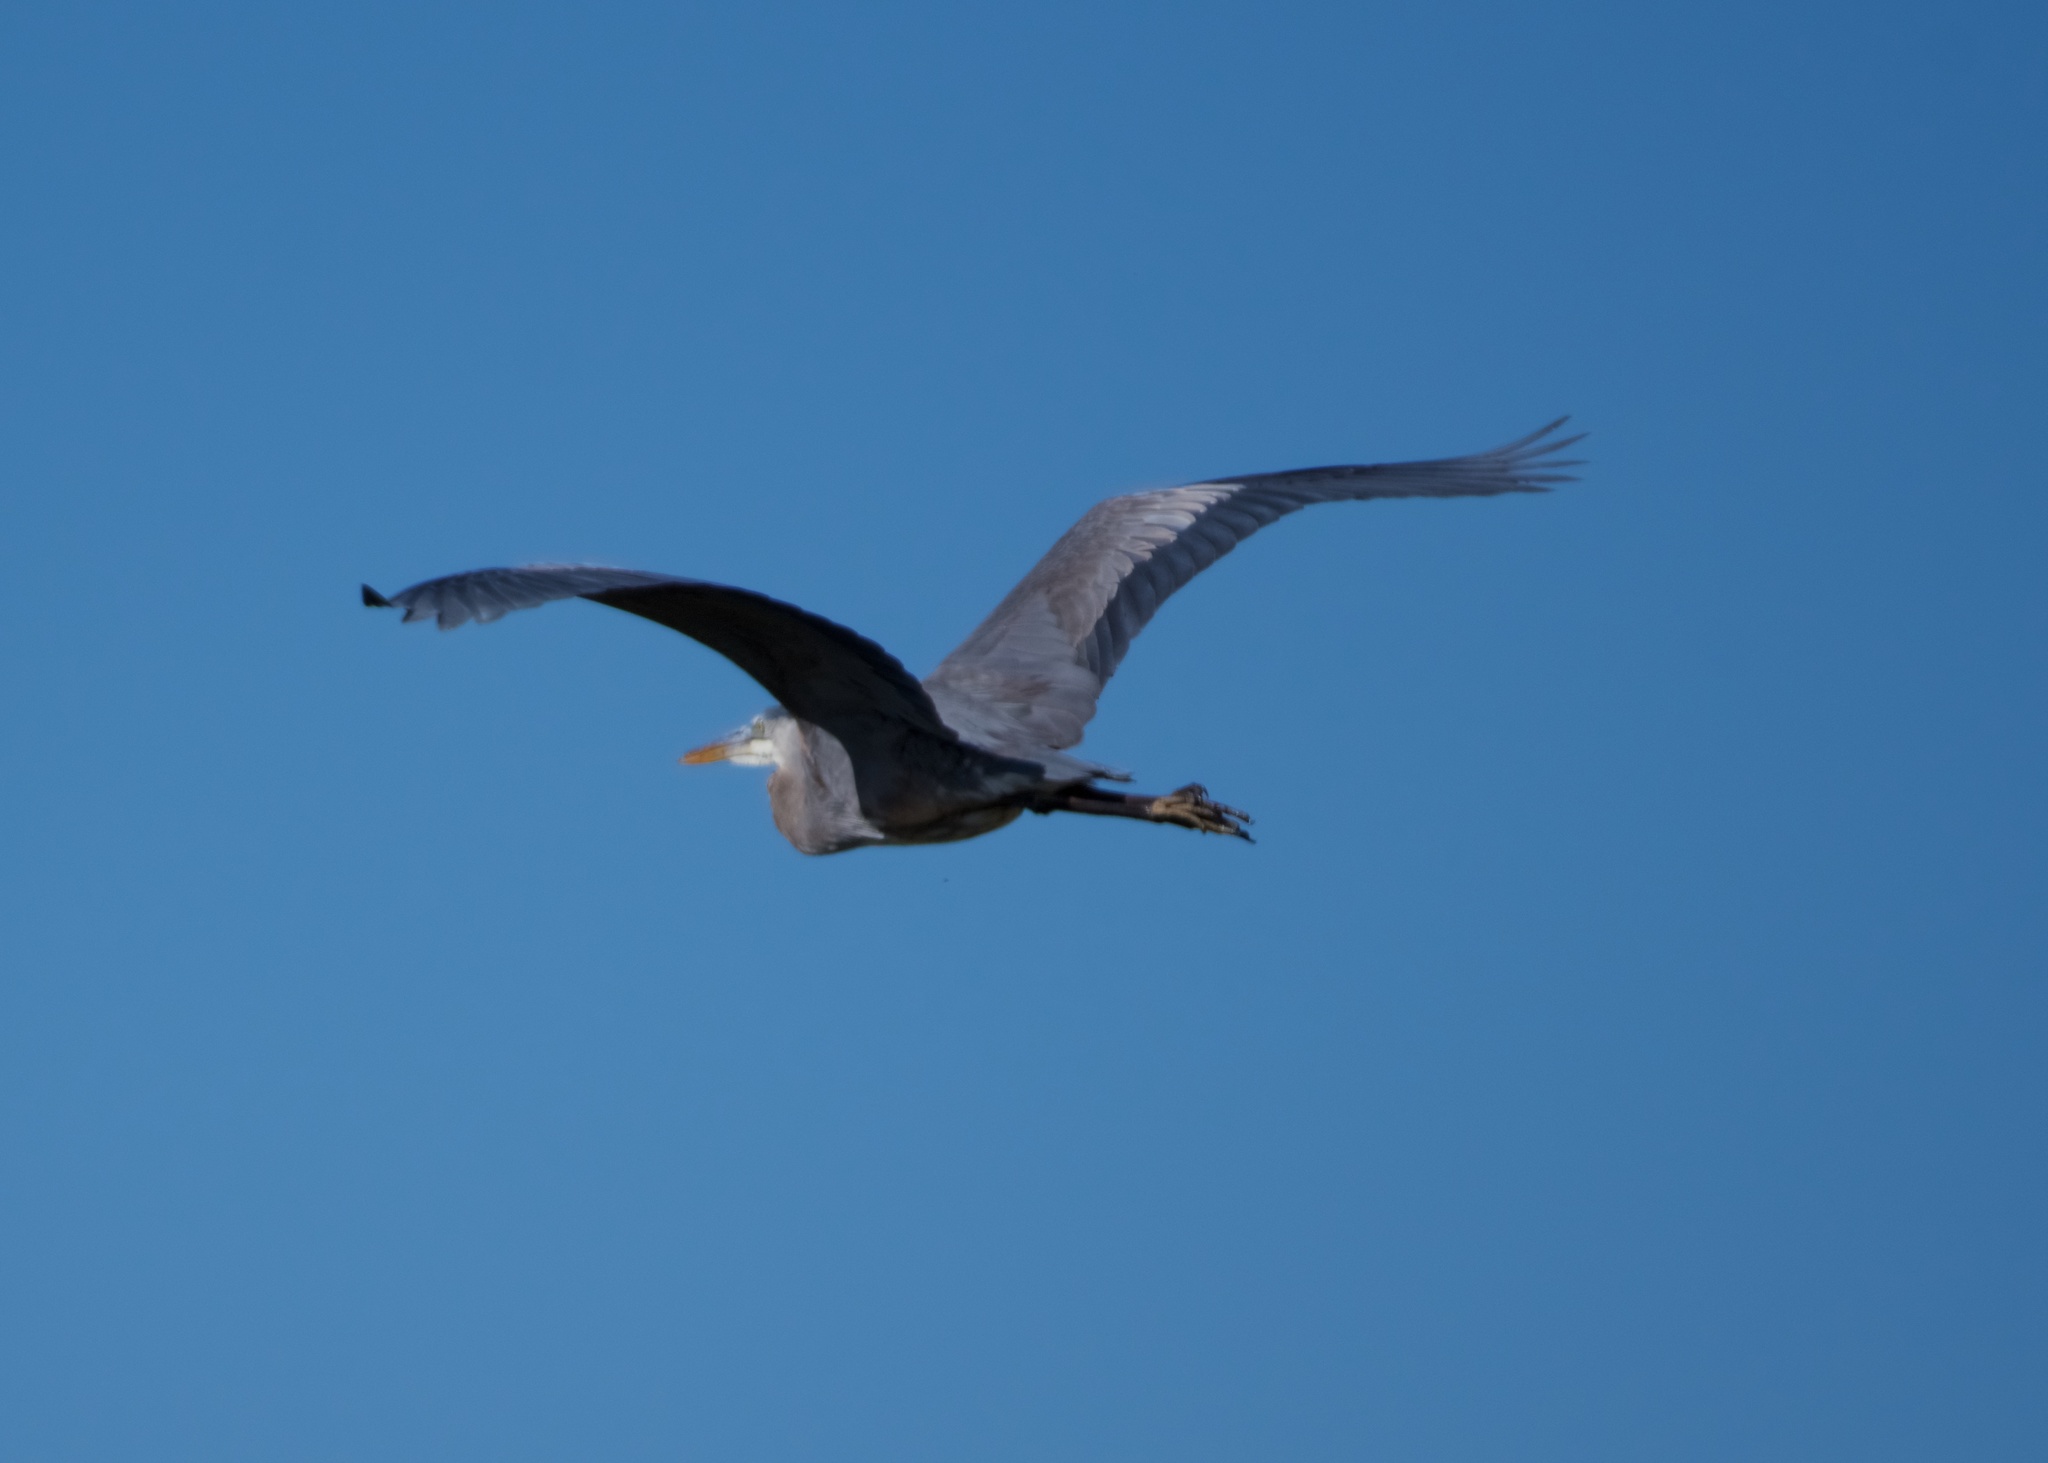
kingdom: Animalia
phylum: Chordata
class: Aves
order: Pelecaniformes
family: Ardeidae
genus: Ardea
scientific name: Ardea herodias
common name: Great blue heron
